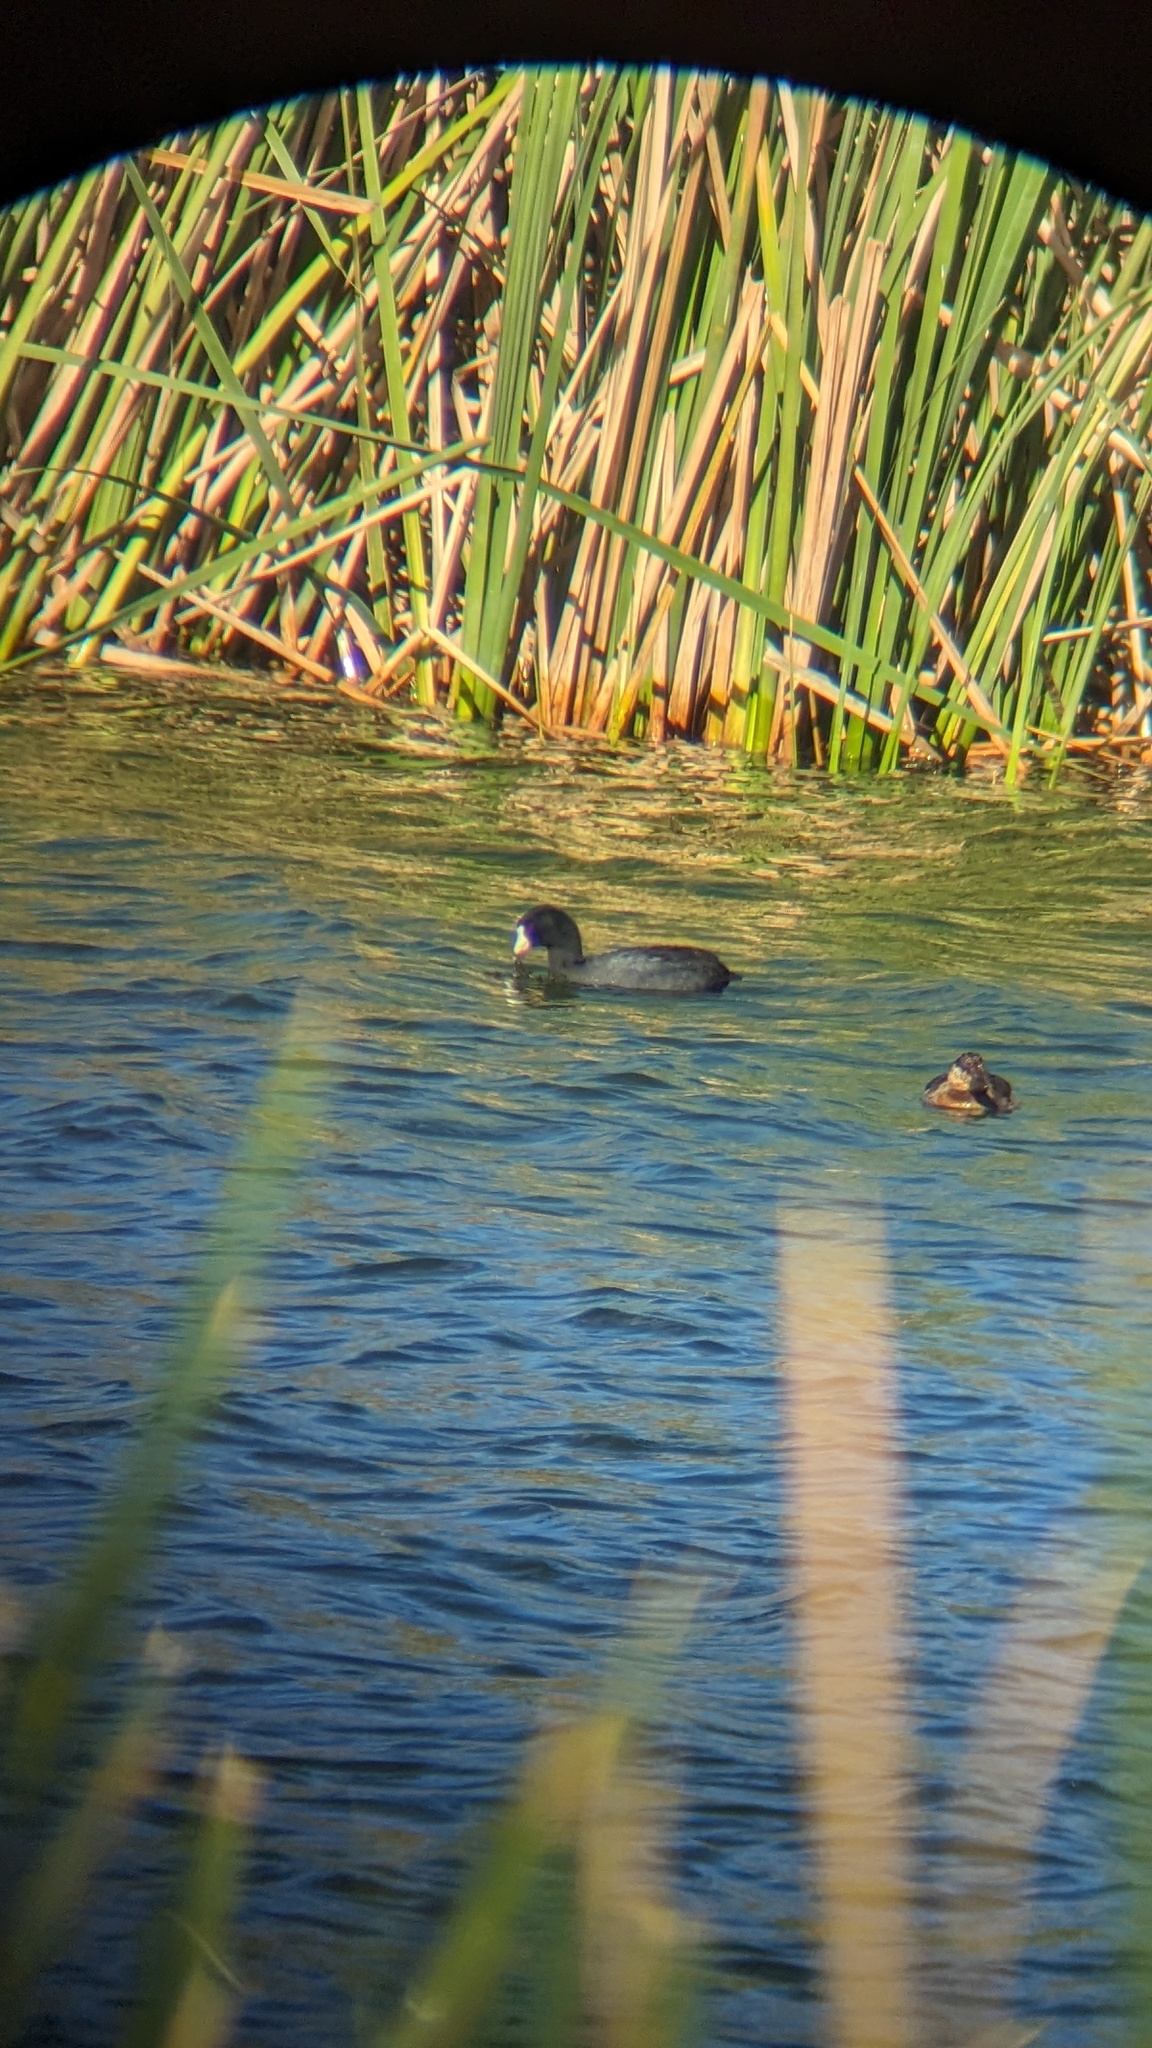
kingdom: Animalia
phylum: Chordata
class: Aves
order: Gruiformes
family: Rallidae
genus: Fulica
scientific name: Fulica americana
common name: American coot
